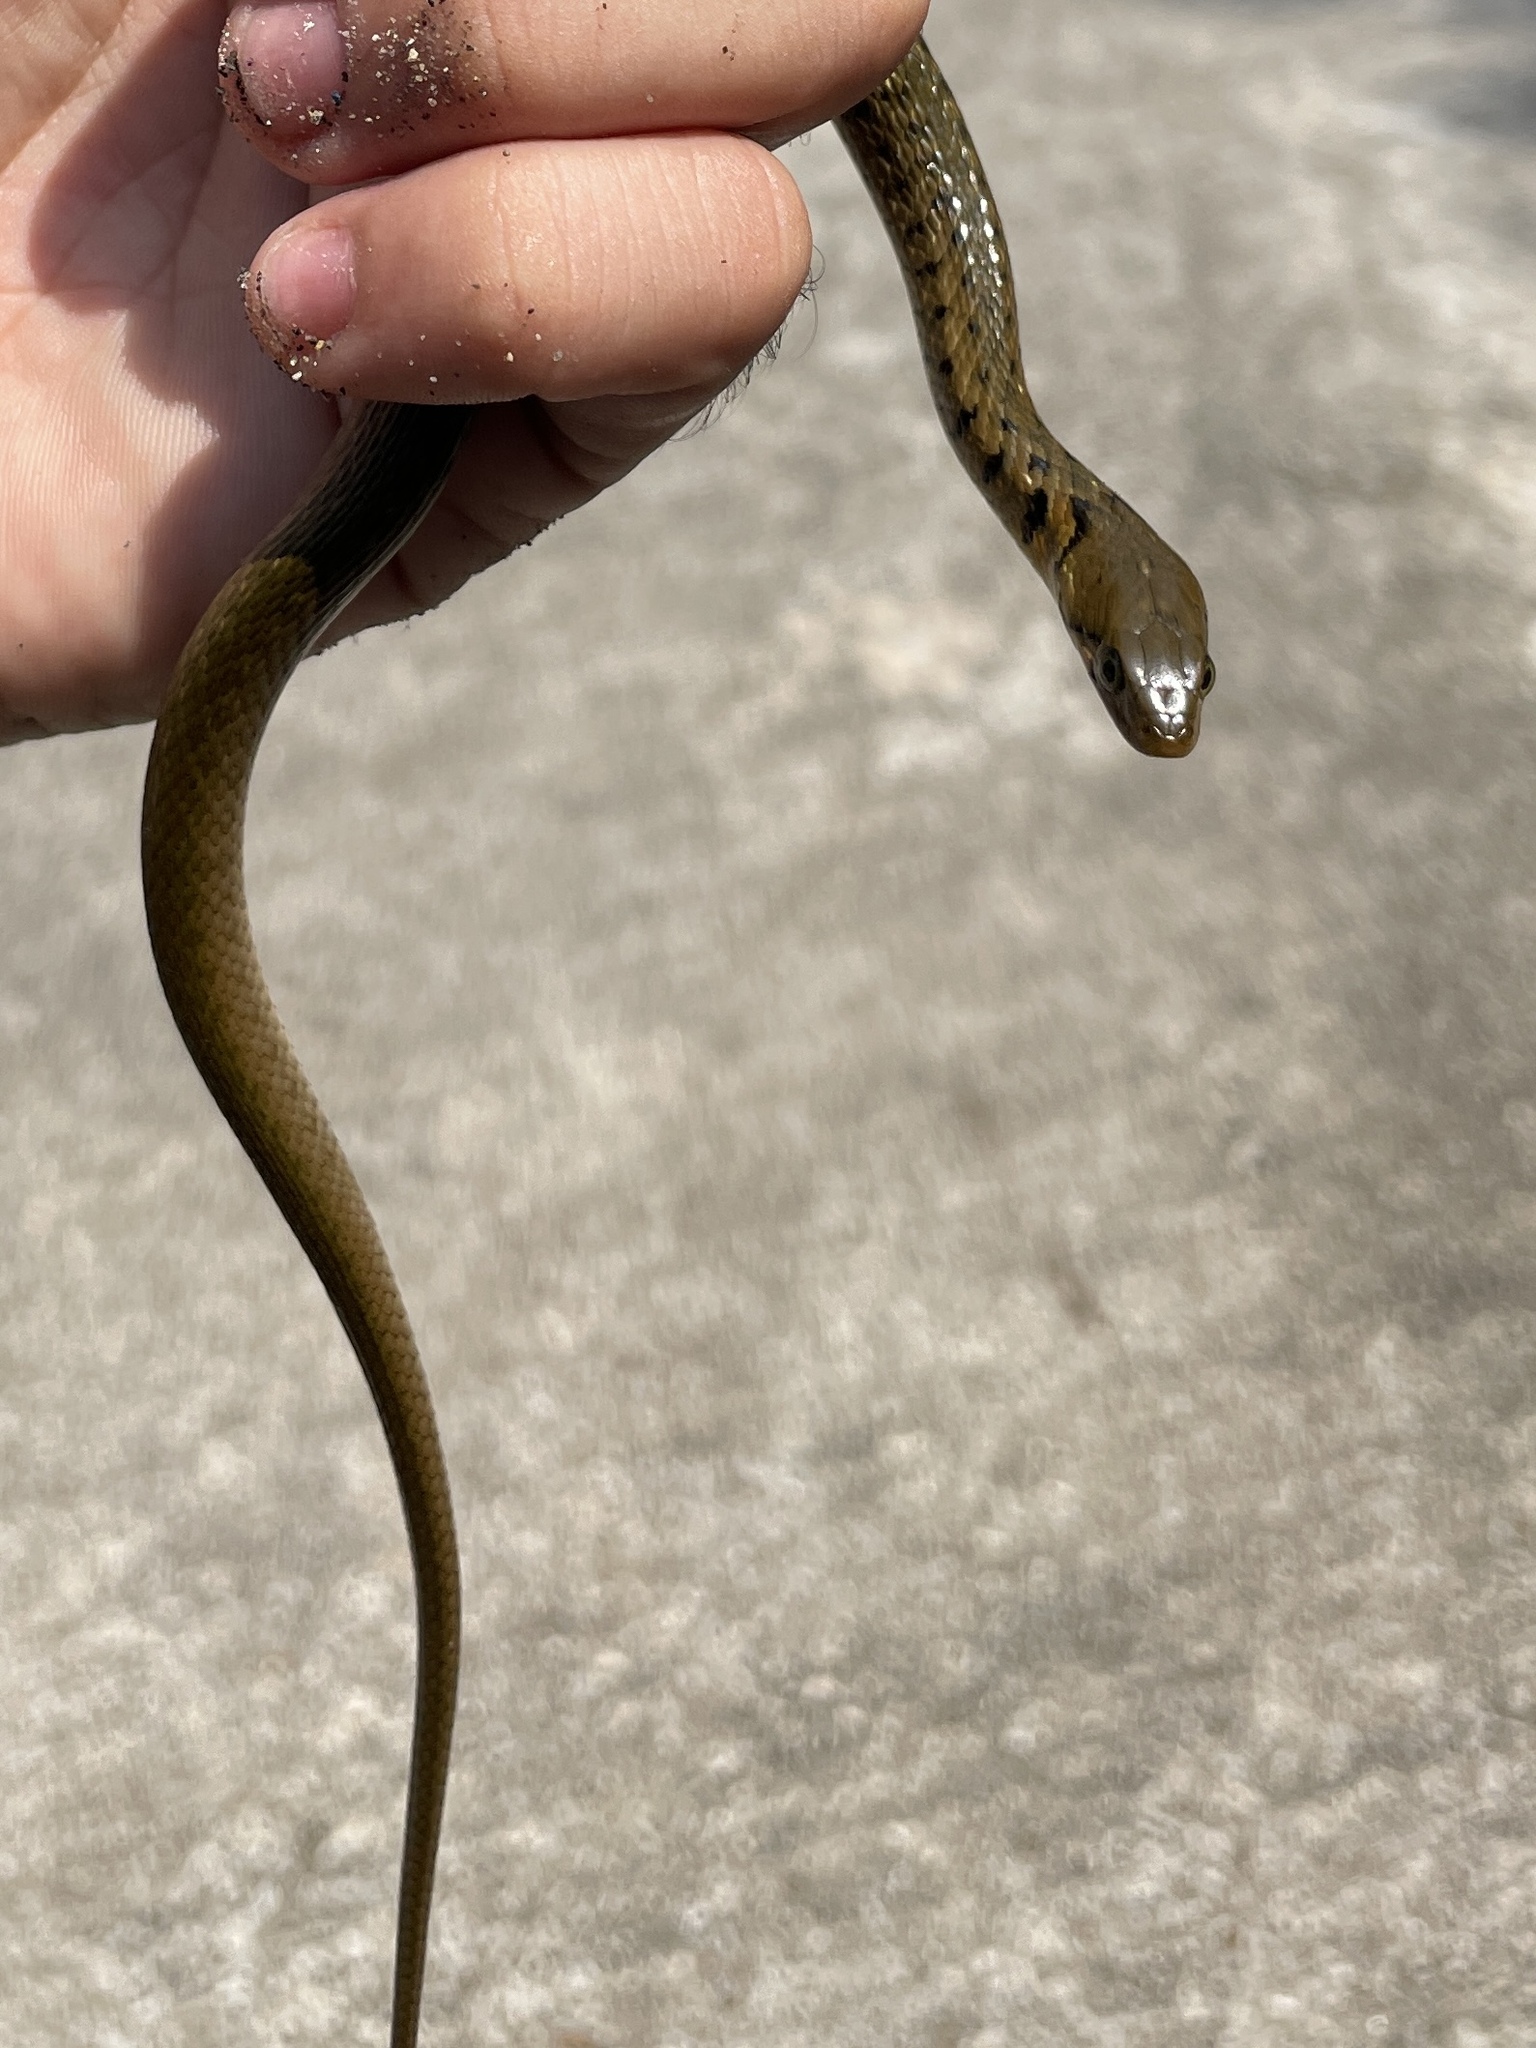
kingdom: Animalia
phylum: Chordata
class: Squamata
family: Colubridae
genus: Fowlea
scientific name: Fowlea flavipunctatus
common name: Yellow-spotted keelback
